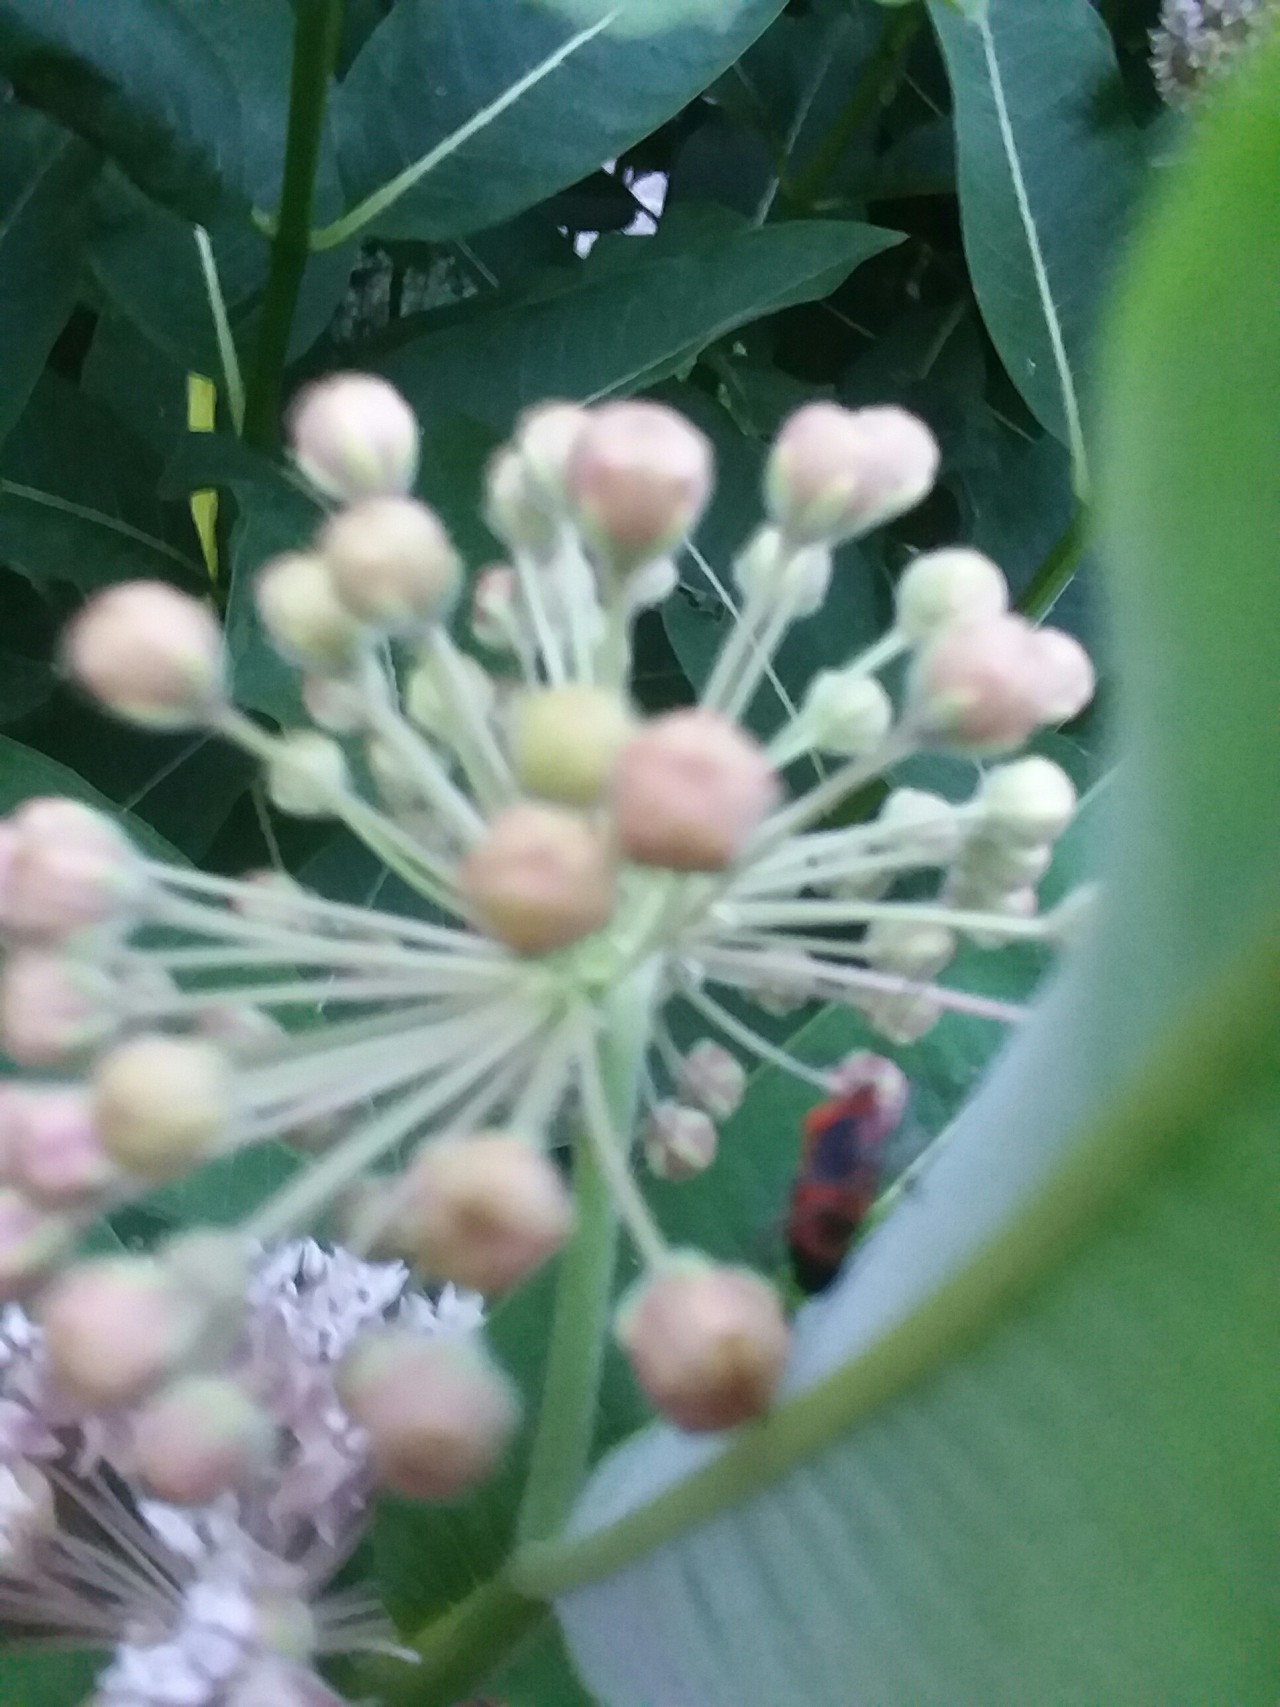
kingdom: Plantae
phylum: Tracheophyta
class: Magnoliopsida
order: Gentianales
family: Apocynaceae
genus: Asclepias
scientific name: Asclepias syriaca
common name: Common milkweed
